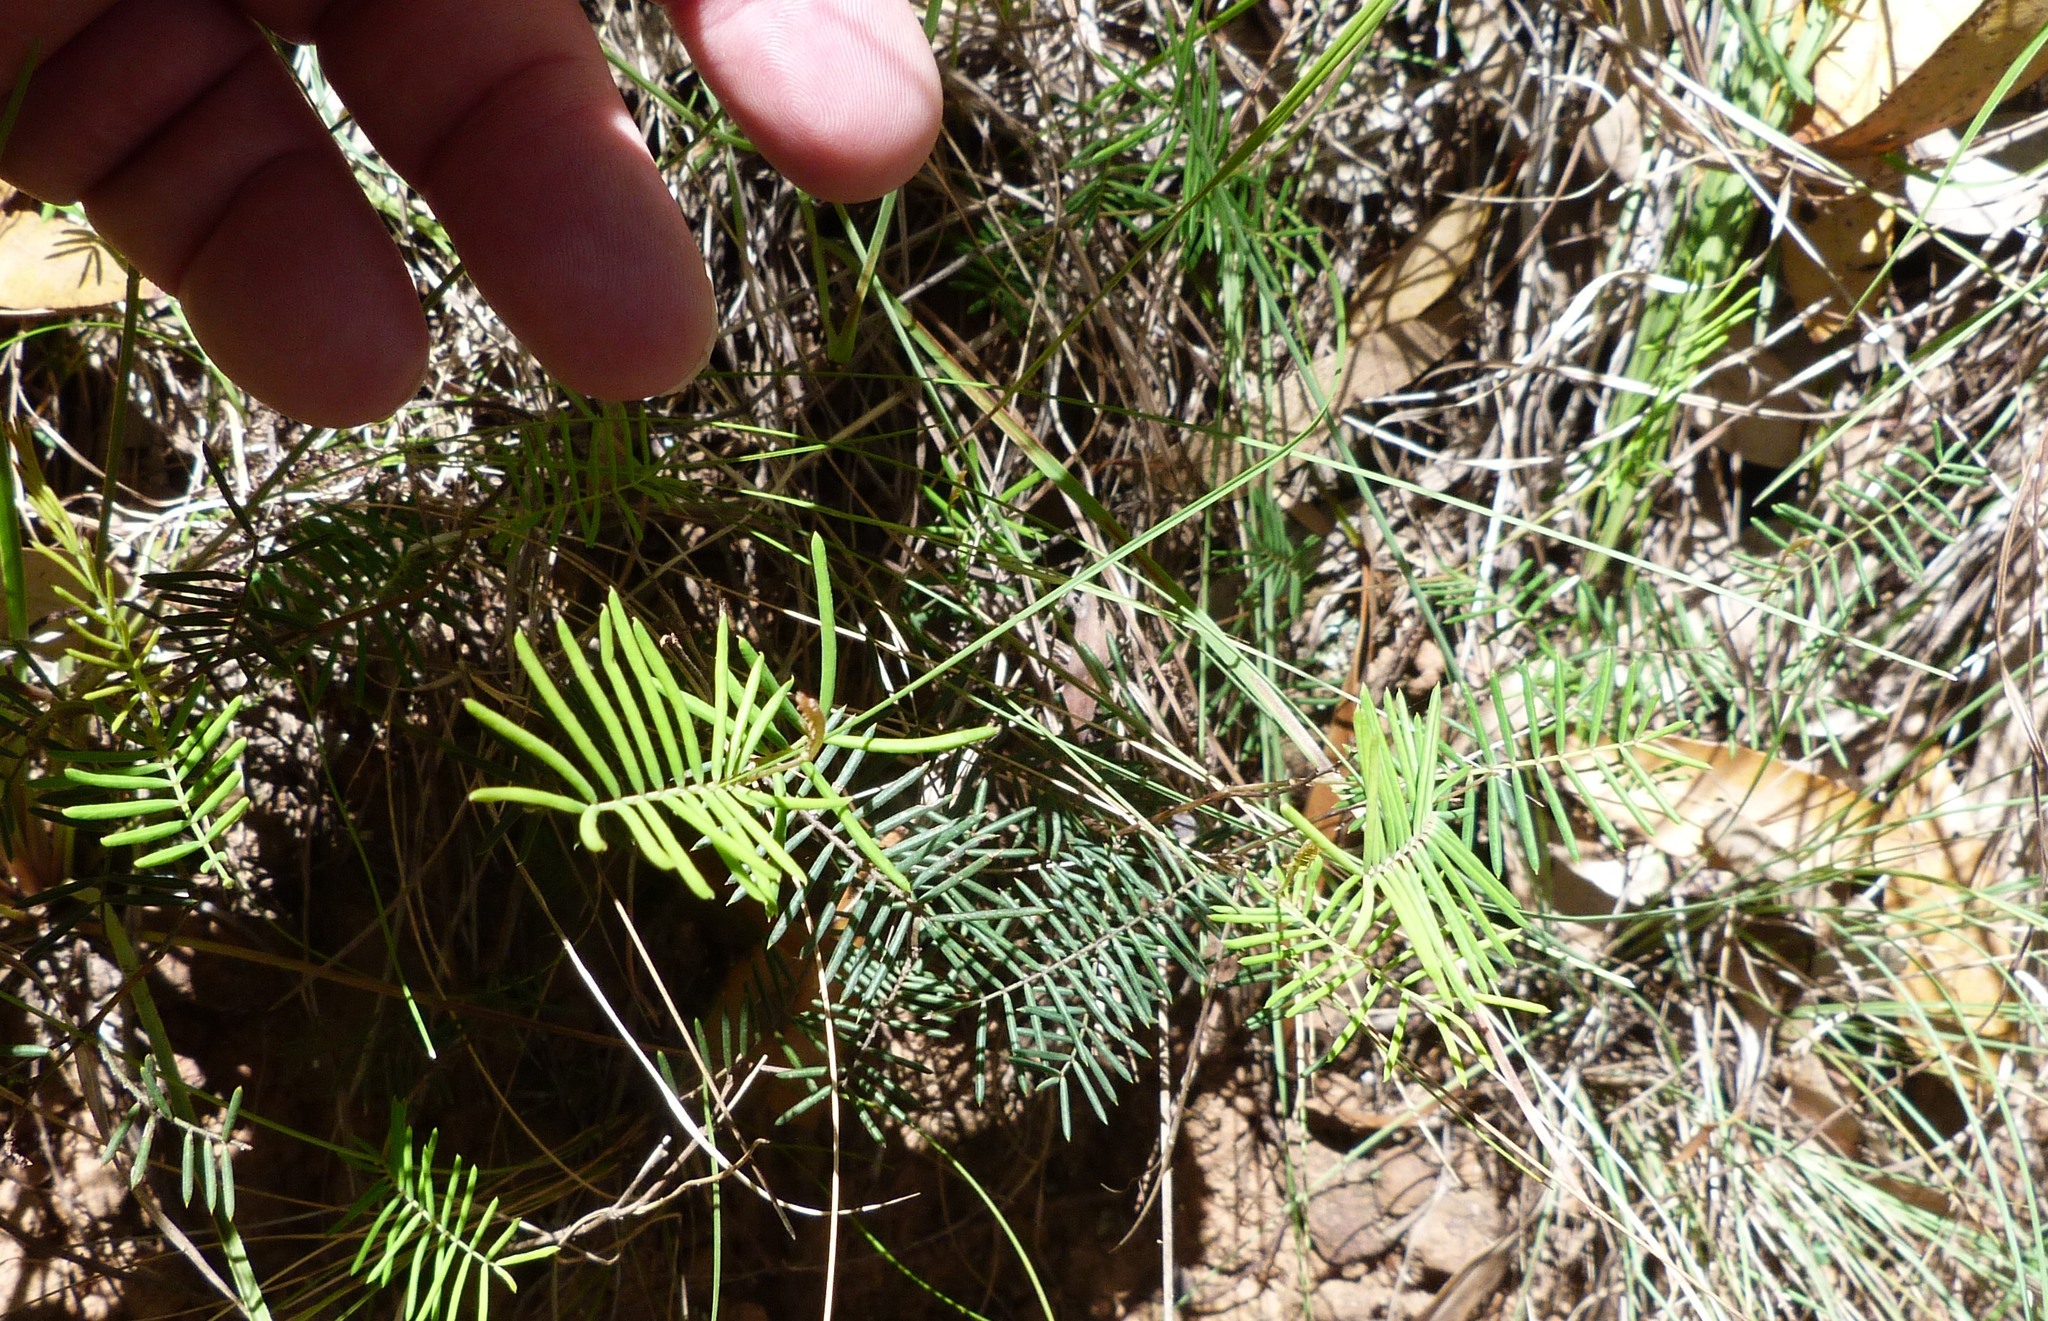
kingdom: Plantae
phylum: Tracheophyta
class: Magnoliopsida
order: Fabales
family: Fabaceae
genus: Gompholobium
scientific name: Gompholobium pinnatum
